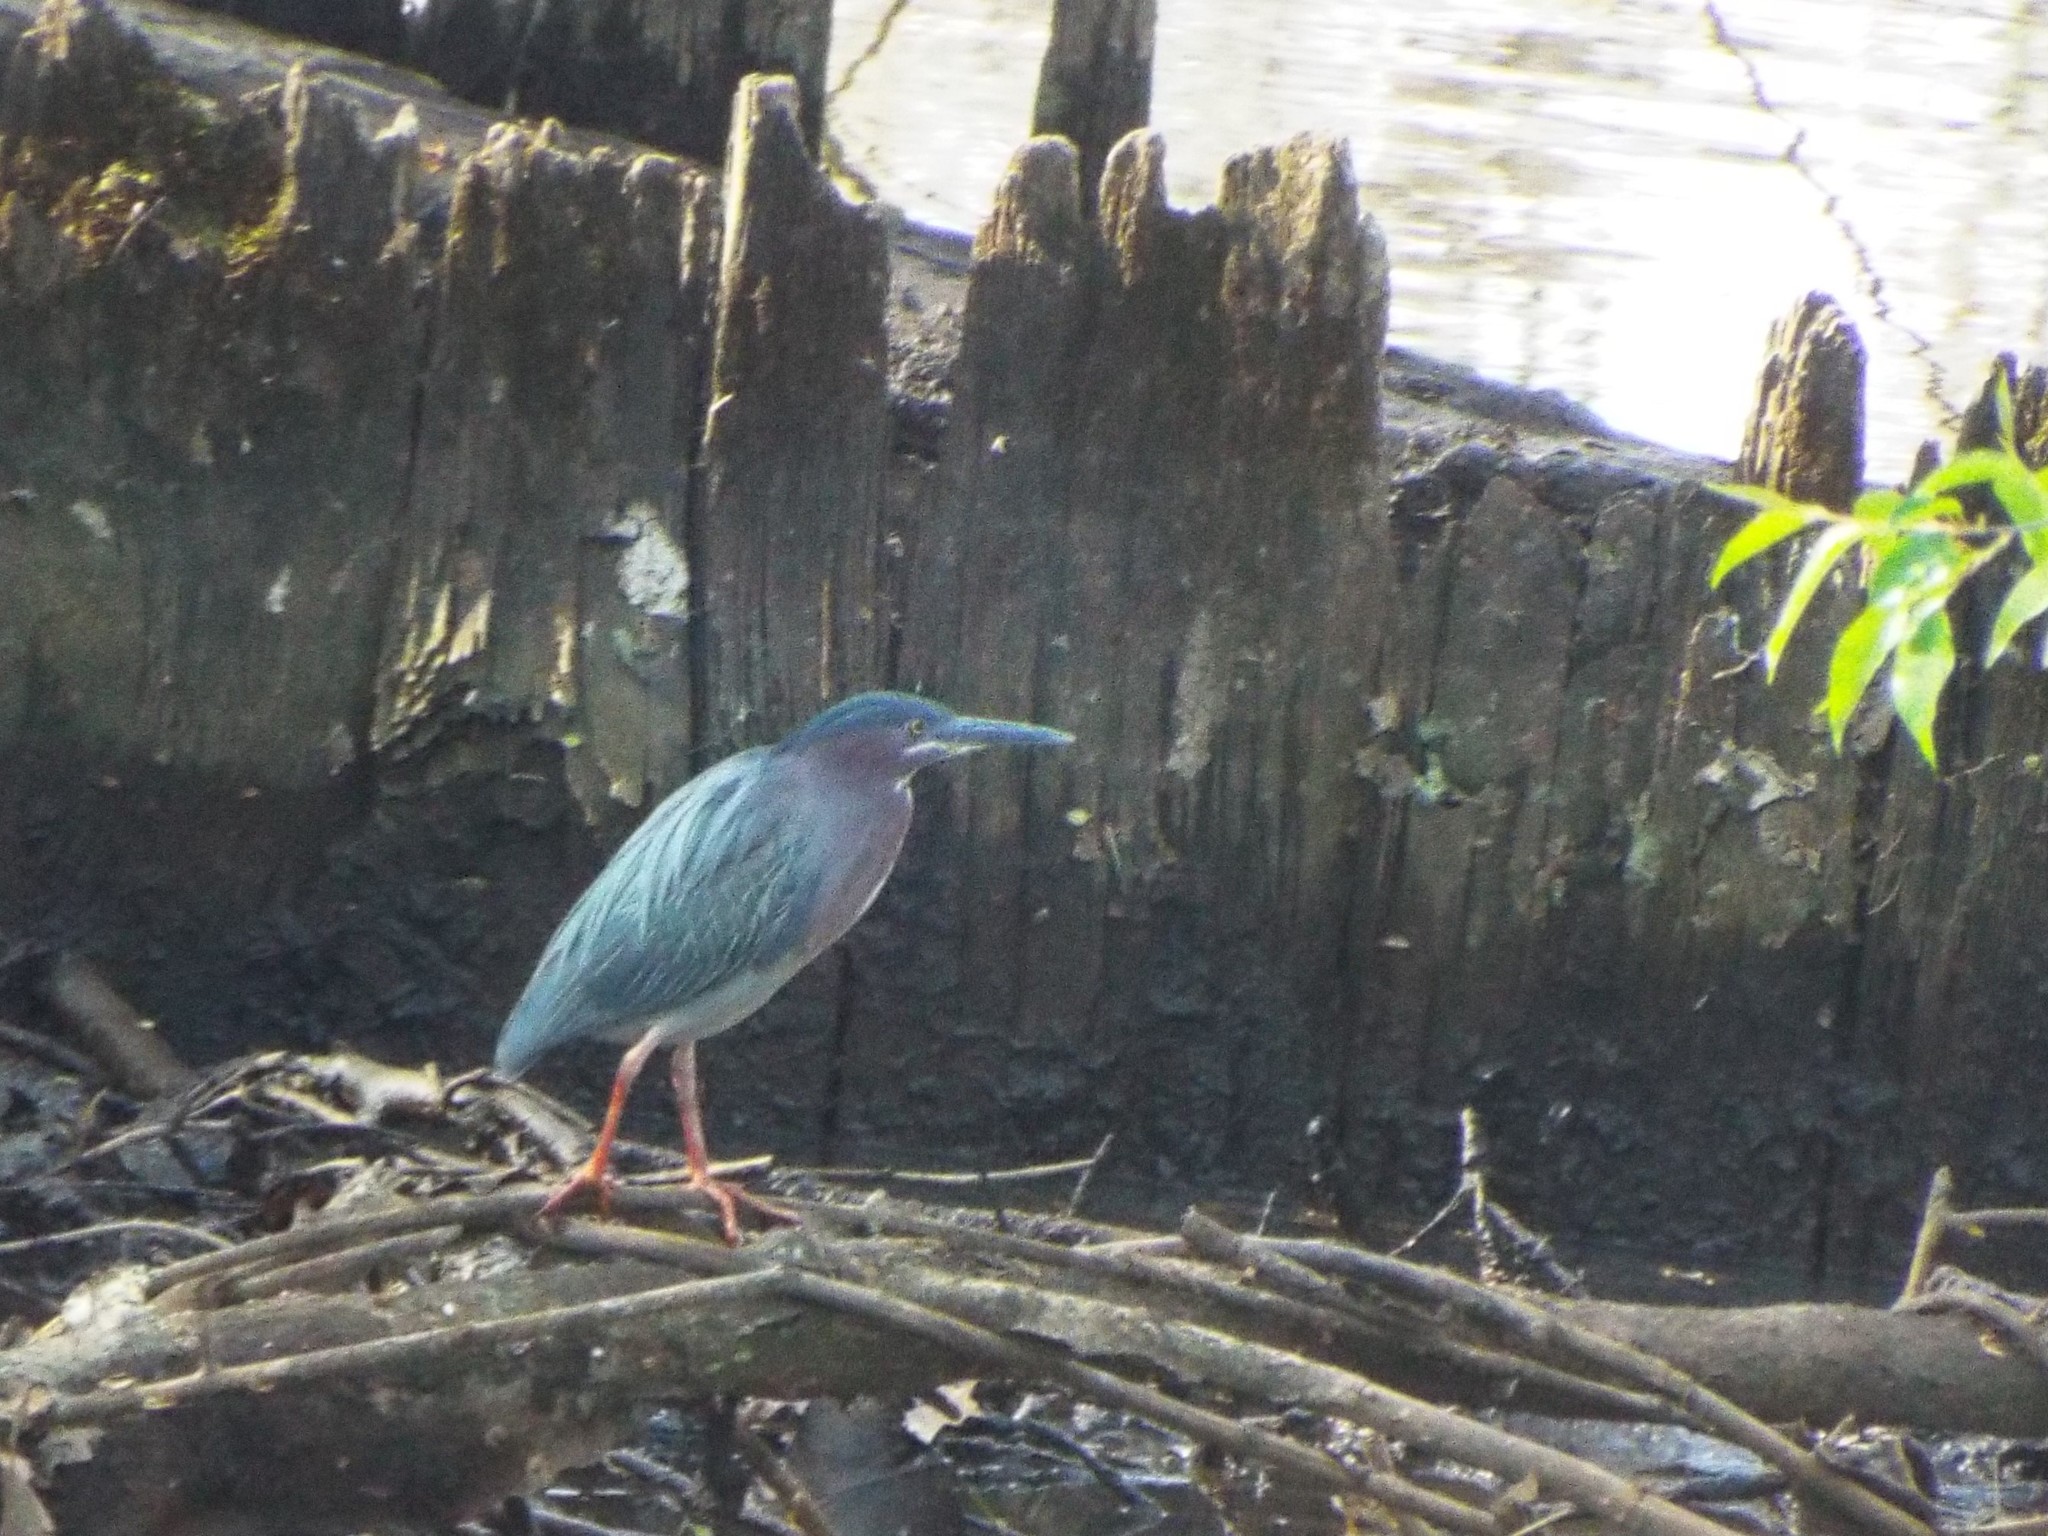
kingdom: Animalia
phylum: Chordata
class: Aves
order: Pelecaniformes
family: Ardeidae
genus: Butorides
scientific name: Butorides virescens
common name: Green heron
